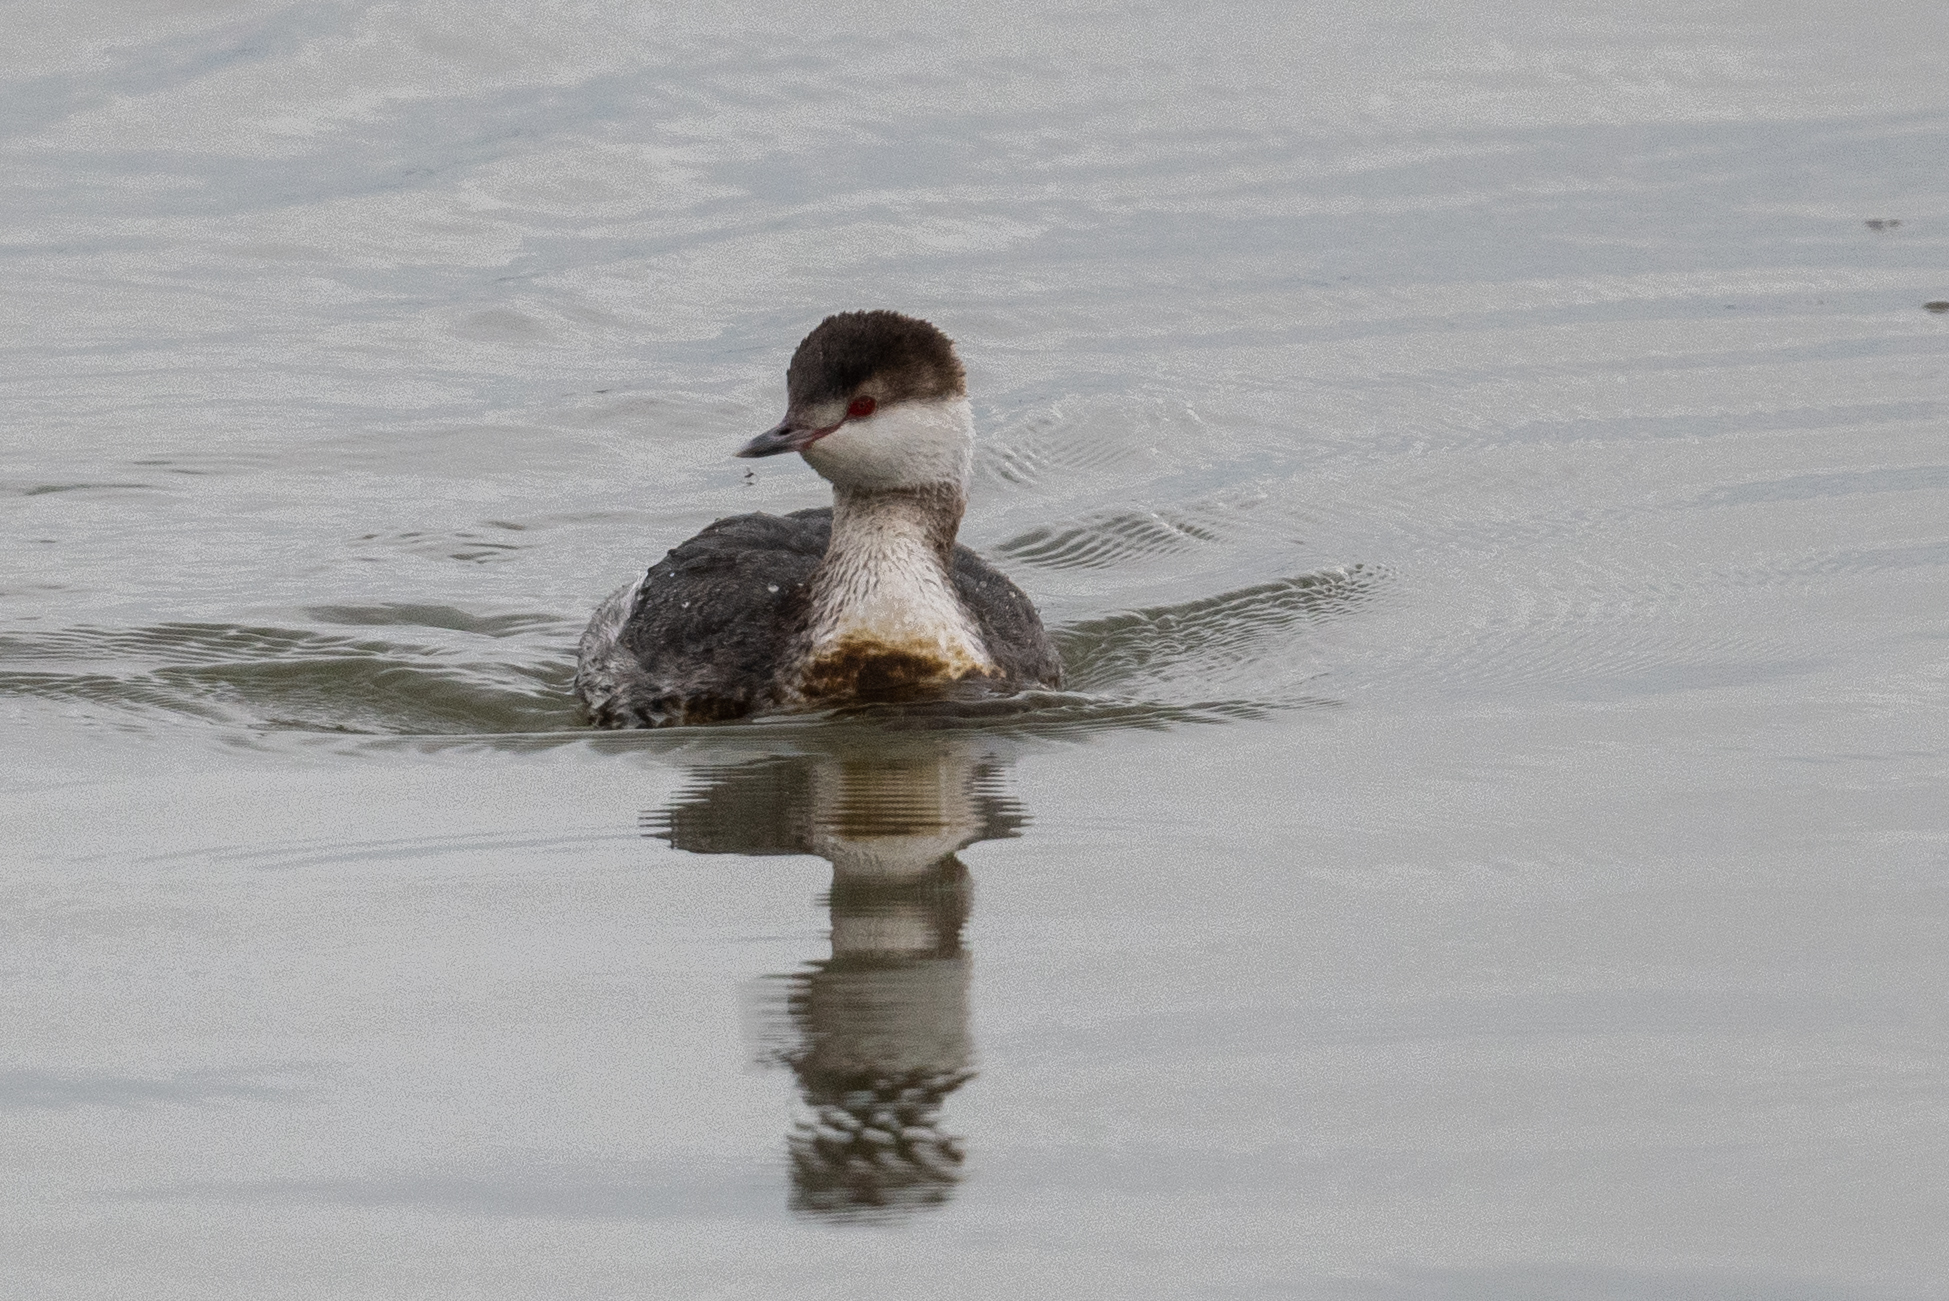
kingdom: Animalia
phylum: Chordata
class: Aves
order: Podicipediformes
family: Podicipedidae
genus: Podiceps
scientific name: Podiceps auritus
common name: Horned grebe
